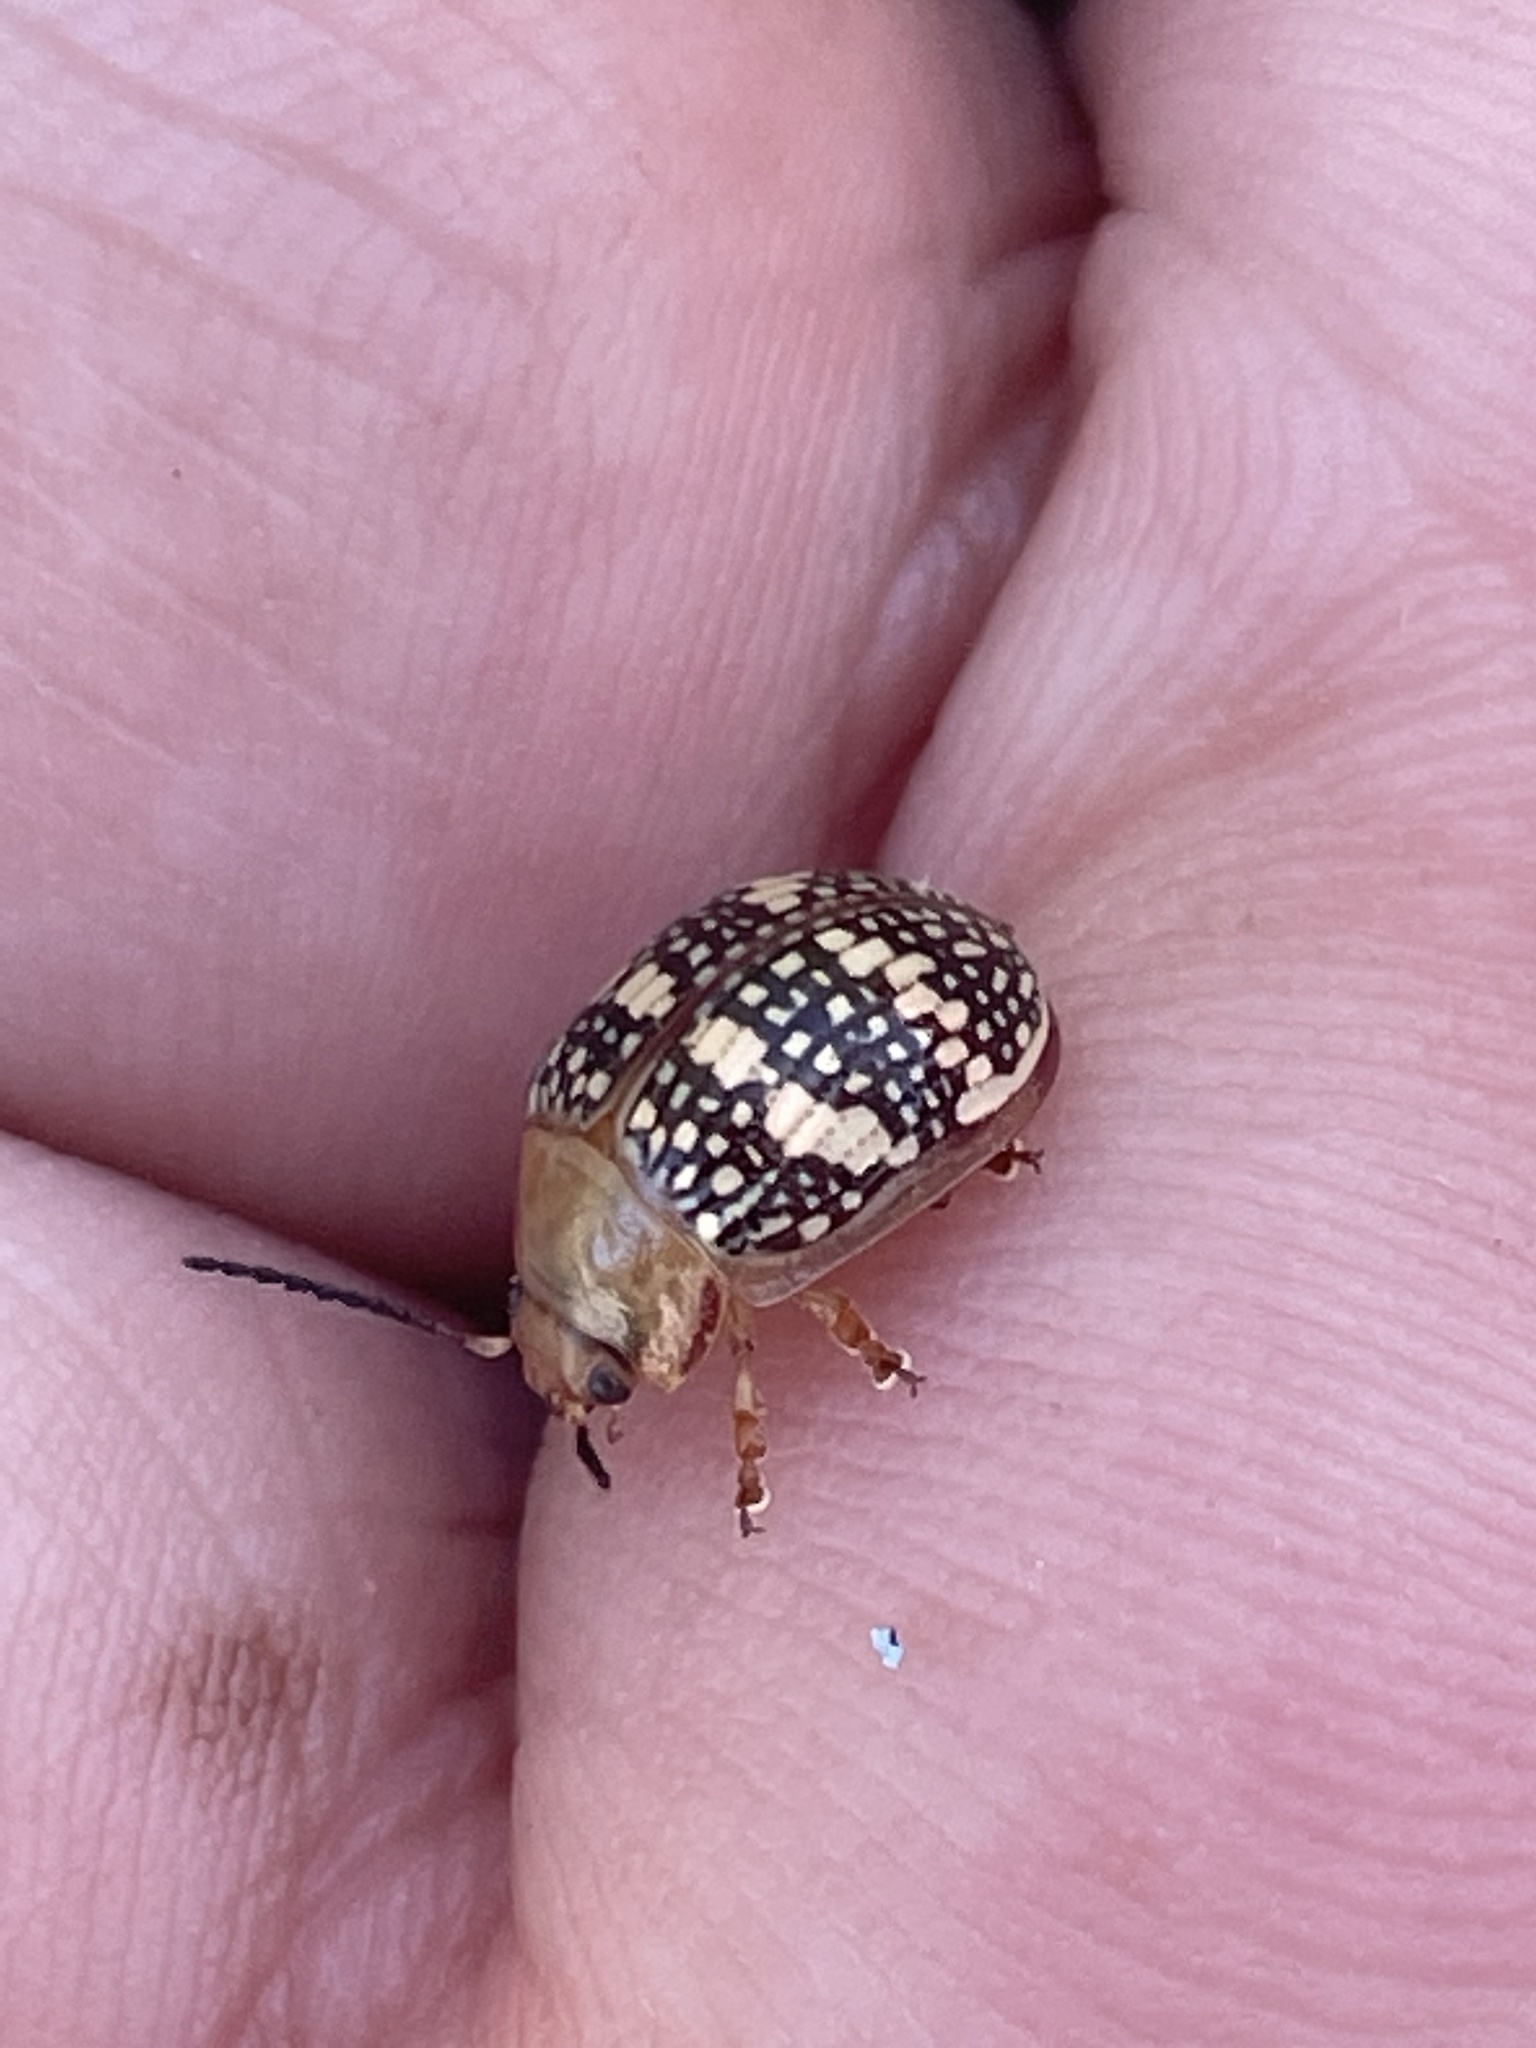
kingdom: Animalia
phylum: Arthropoda
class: Insecta
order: Coleoptera
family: Chrysomelidae
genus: Paropsis
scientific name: Paropsis
